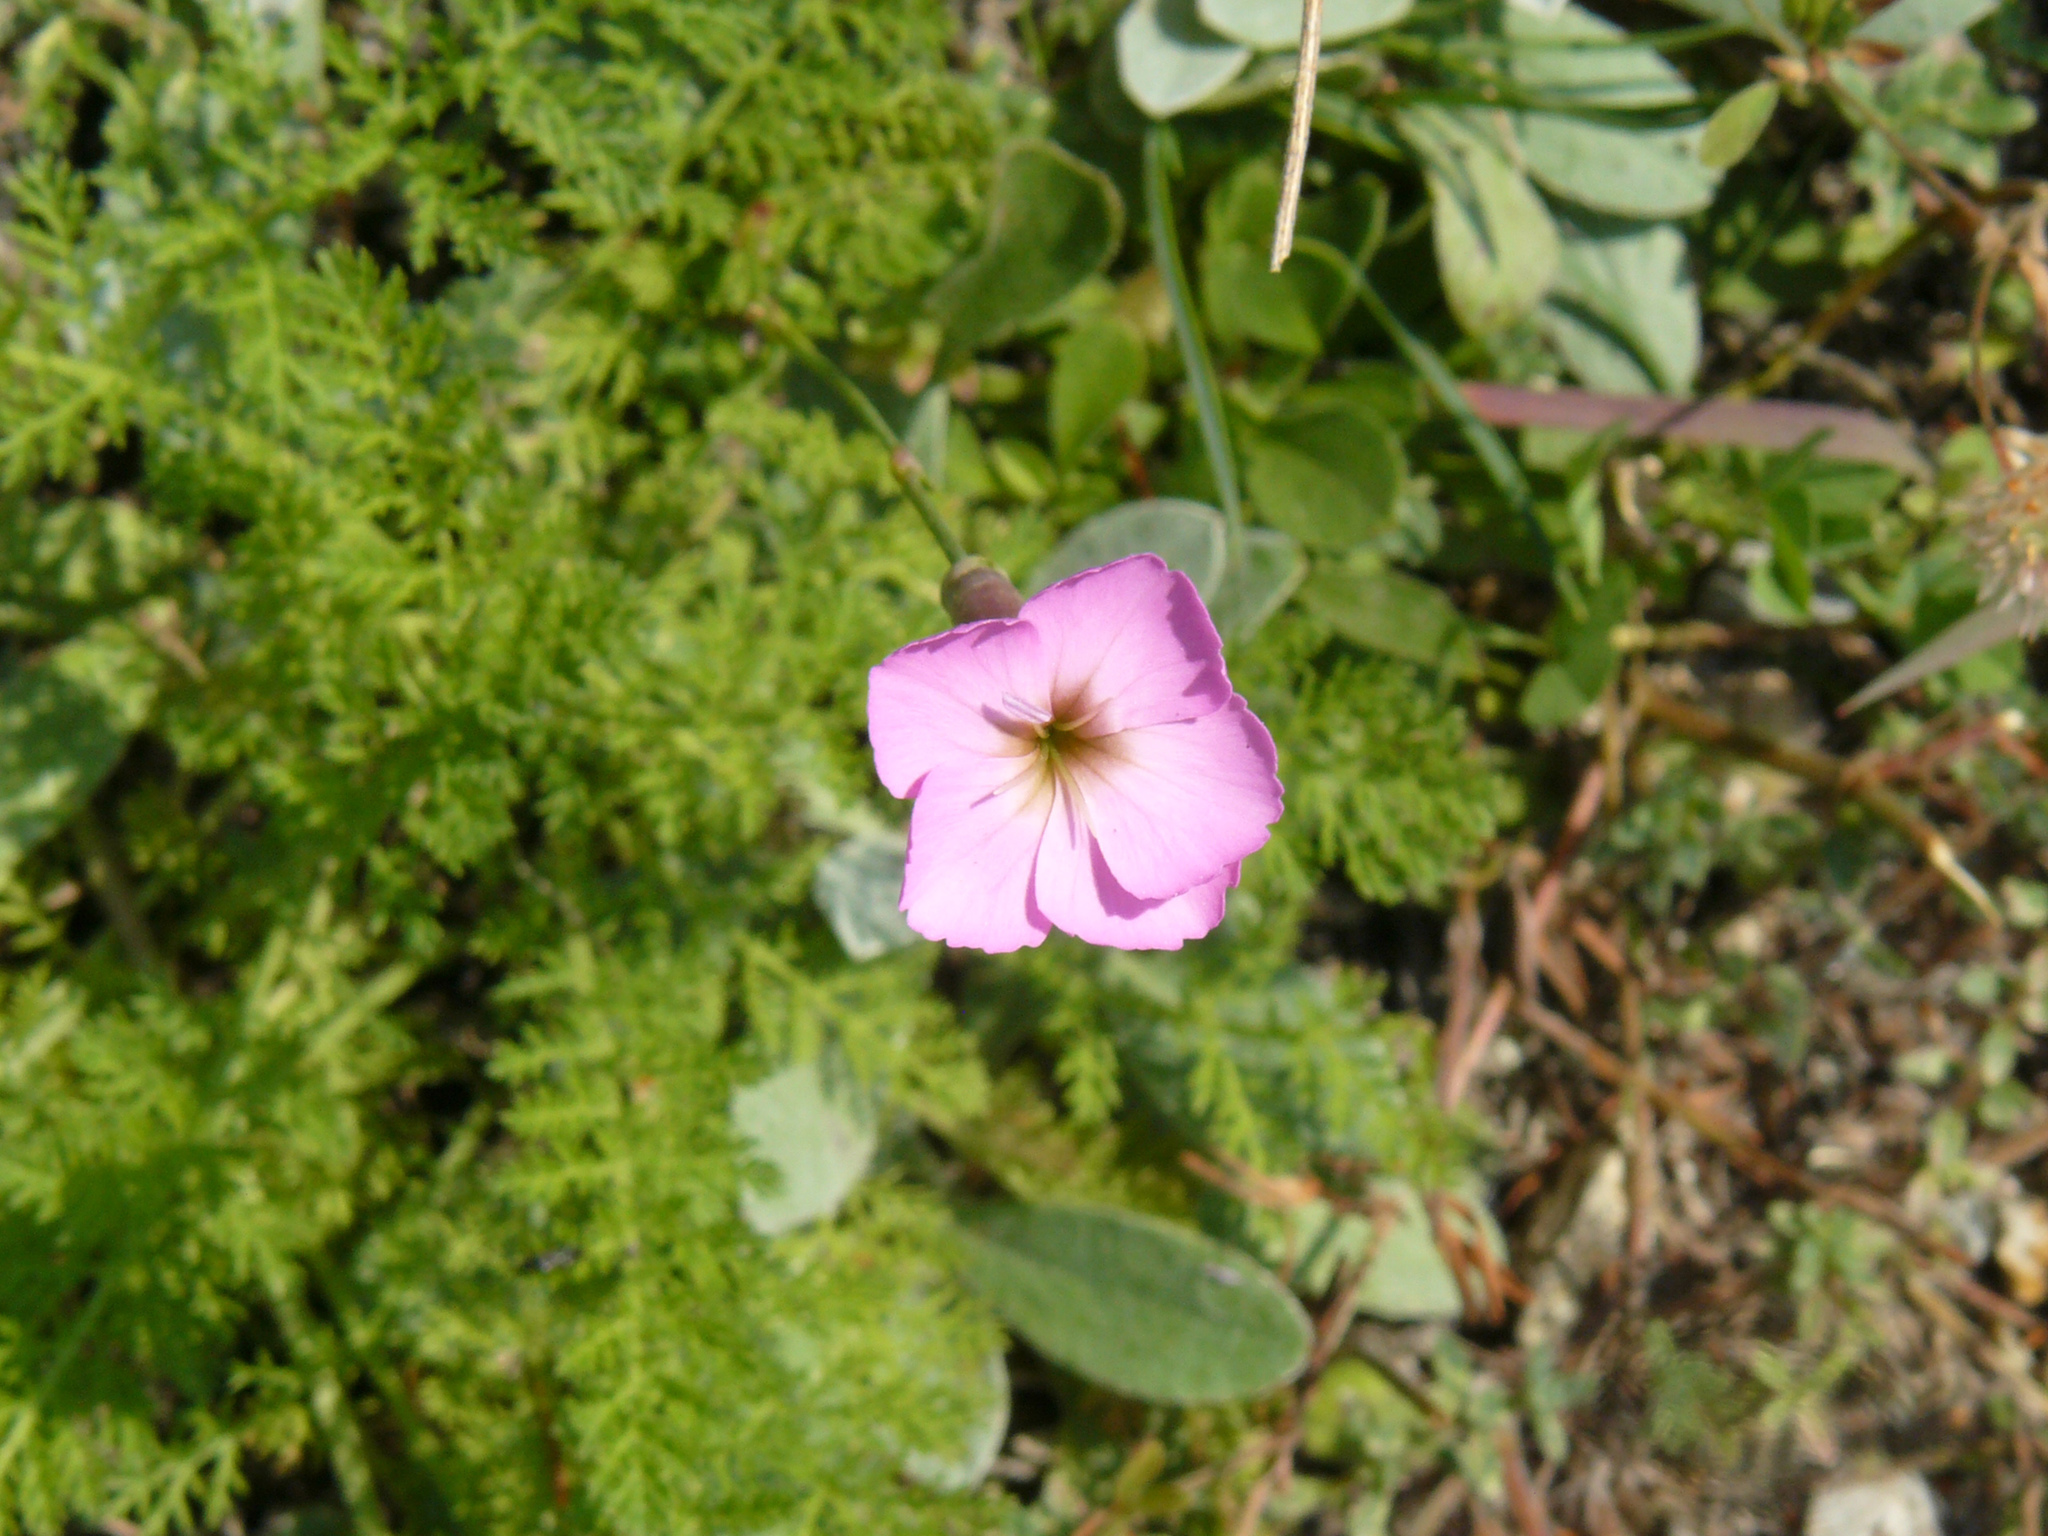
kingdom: Plantae
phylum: Tracheophyta
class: Magnoliopsida
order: Caryophyllales
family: Caryophyllaceae
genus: Dianthus
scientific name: Dianthus sylvestris
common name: Wood pink
